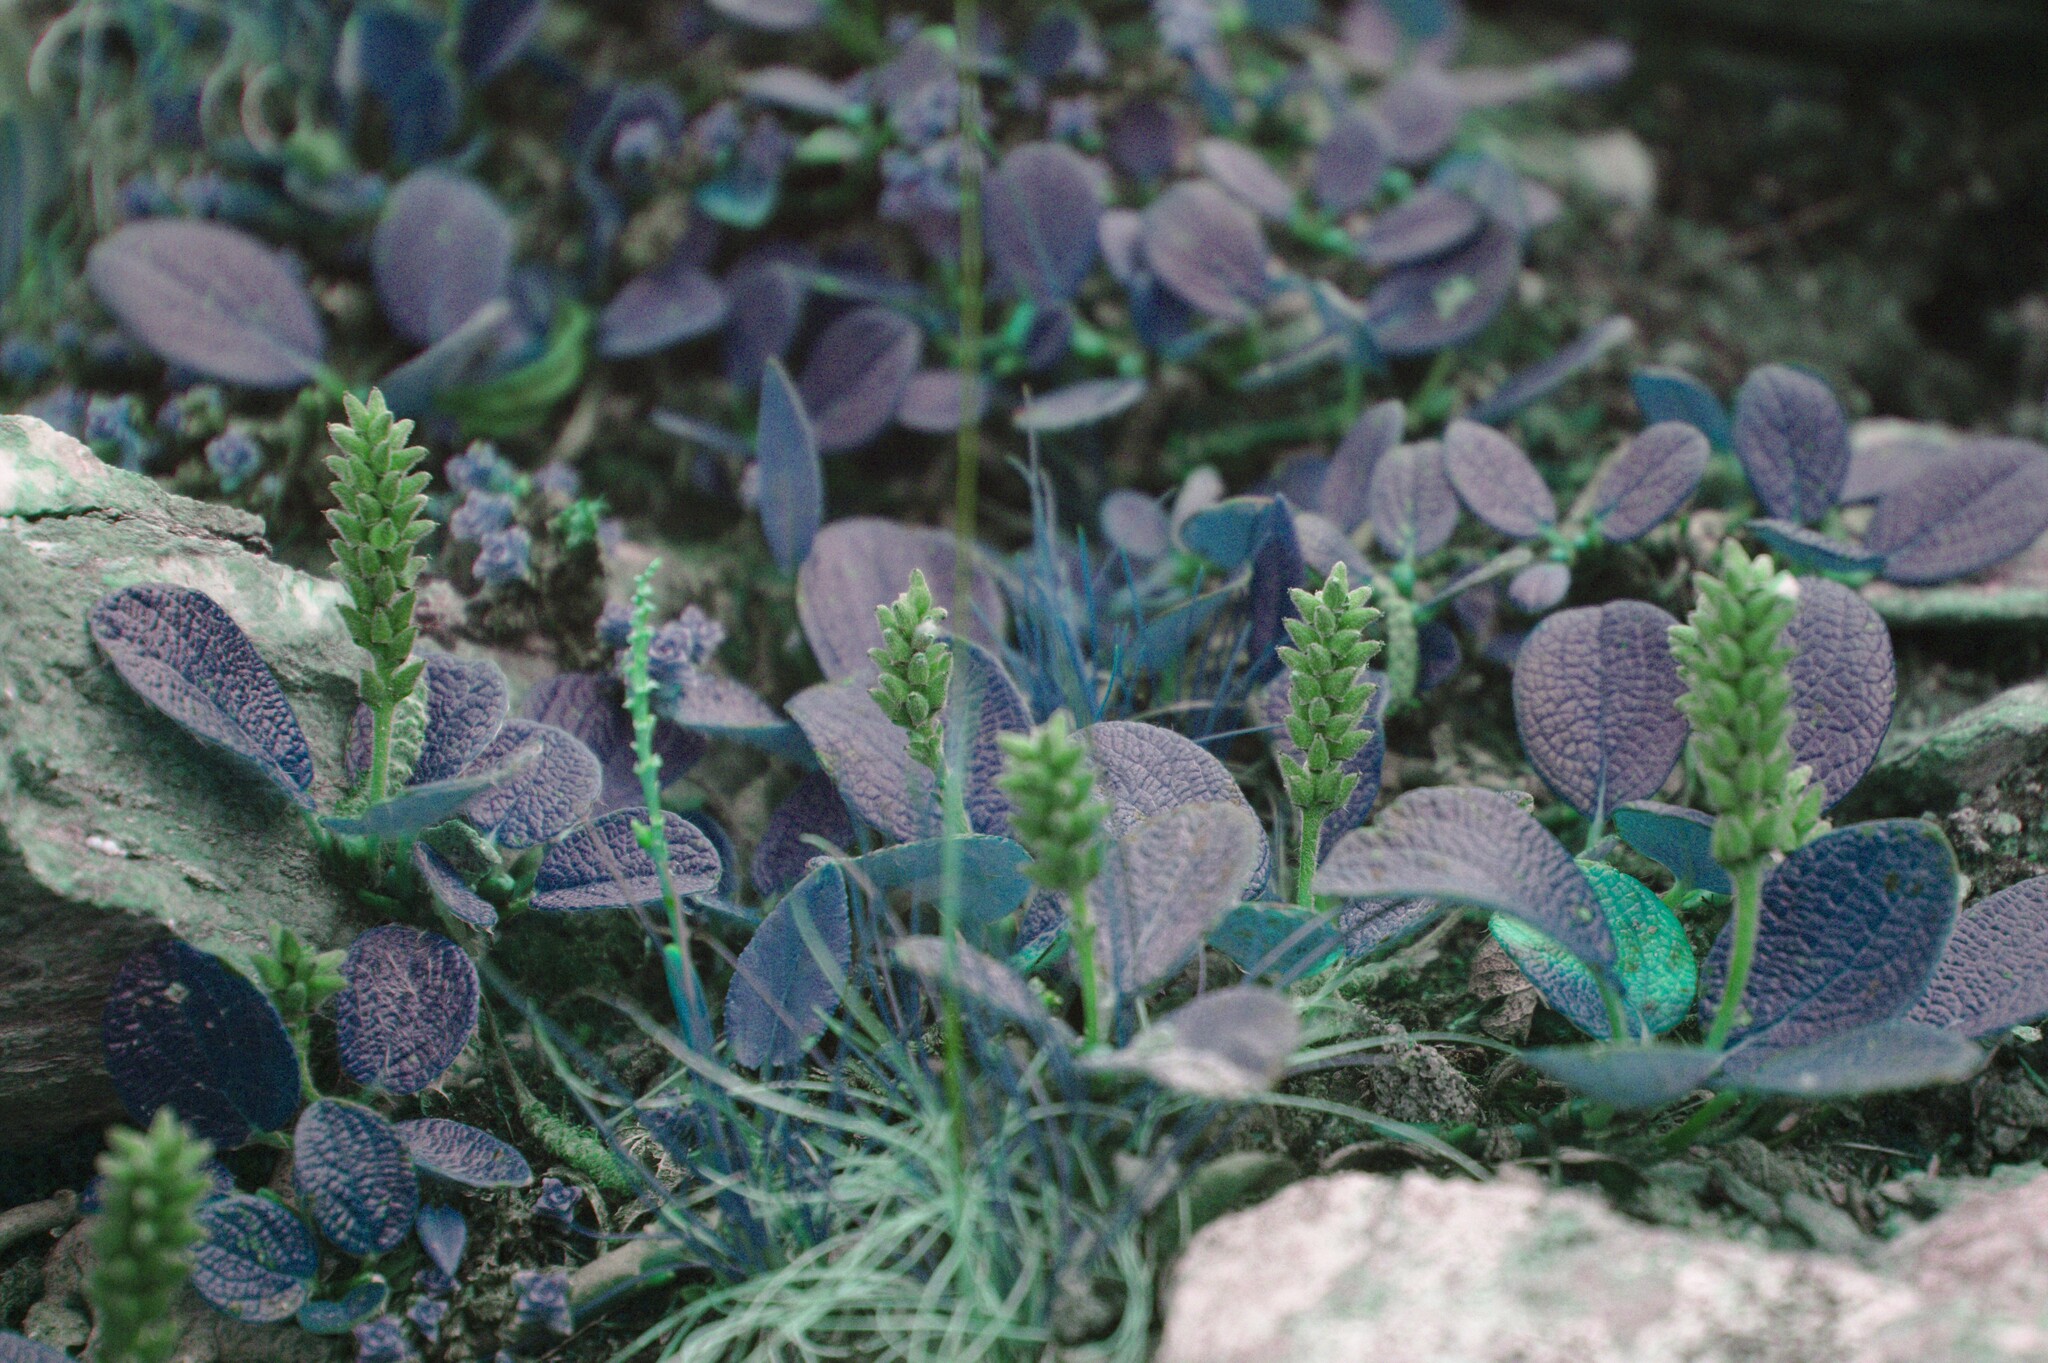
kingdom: Plantae
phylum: Tracheophyta
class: Magnoliopsida
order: Malpighiales
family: Salicaceae
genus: Salix
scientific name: Salix reticulata
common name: Net-leaved willow
